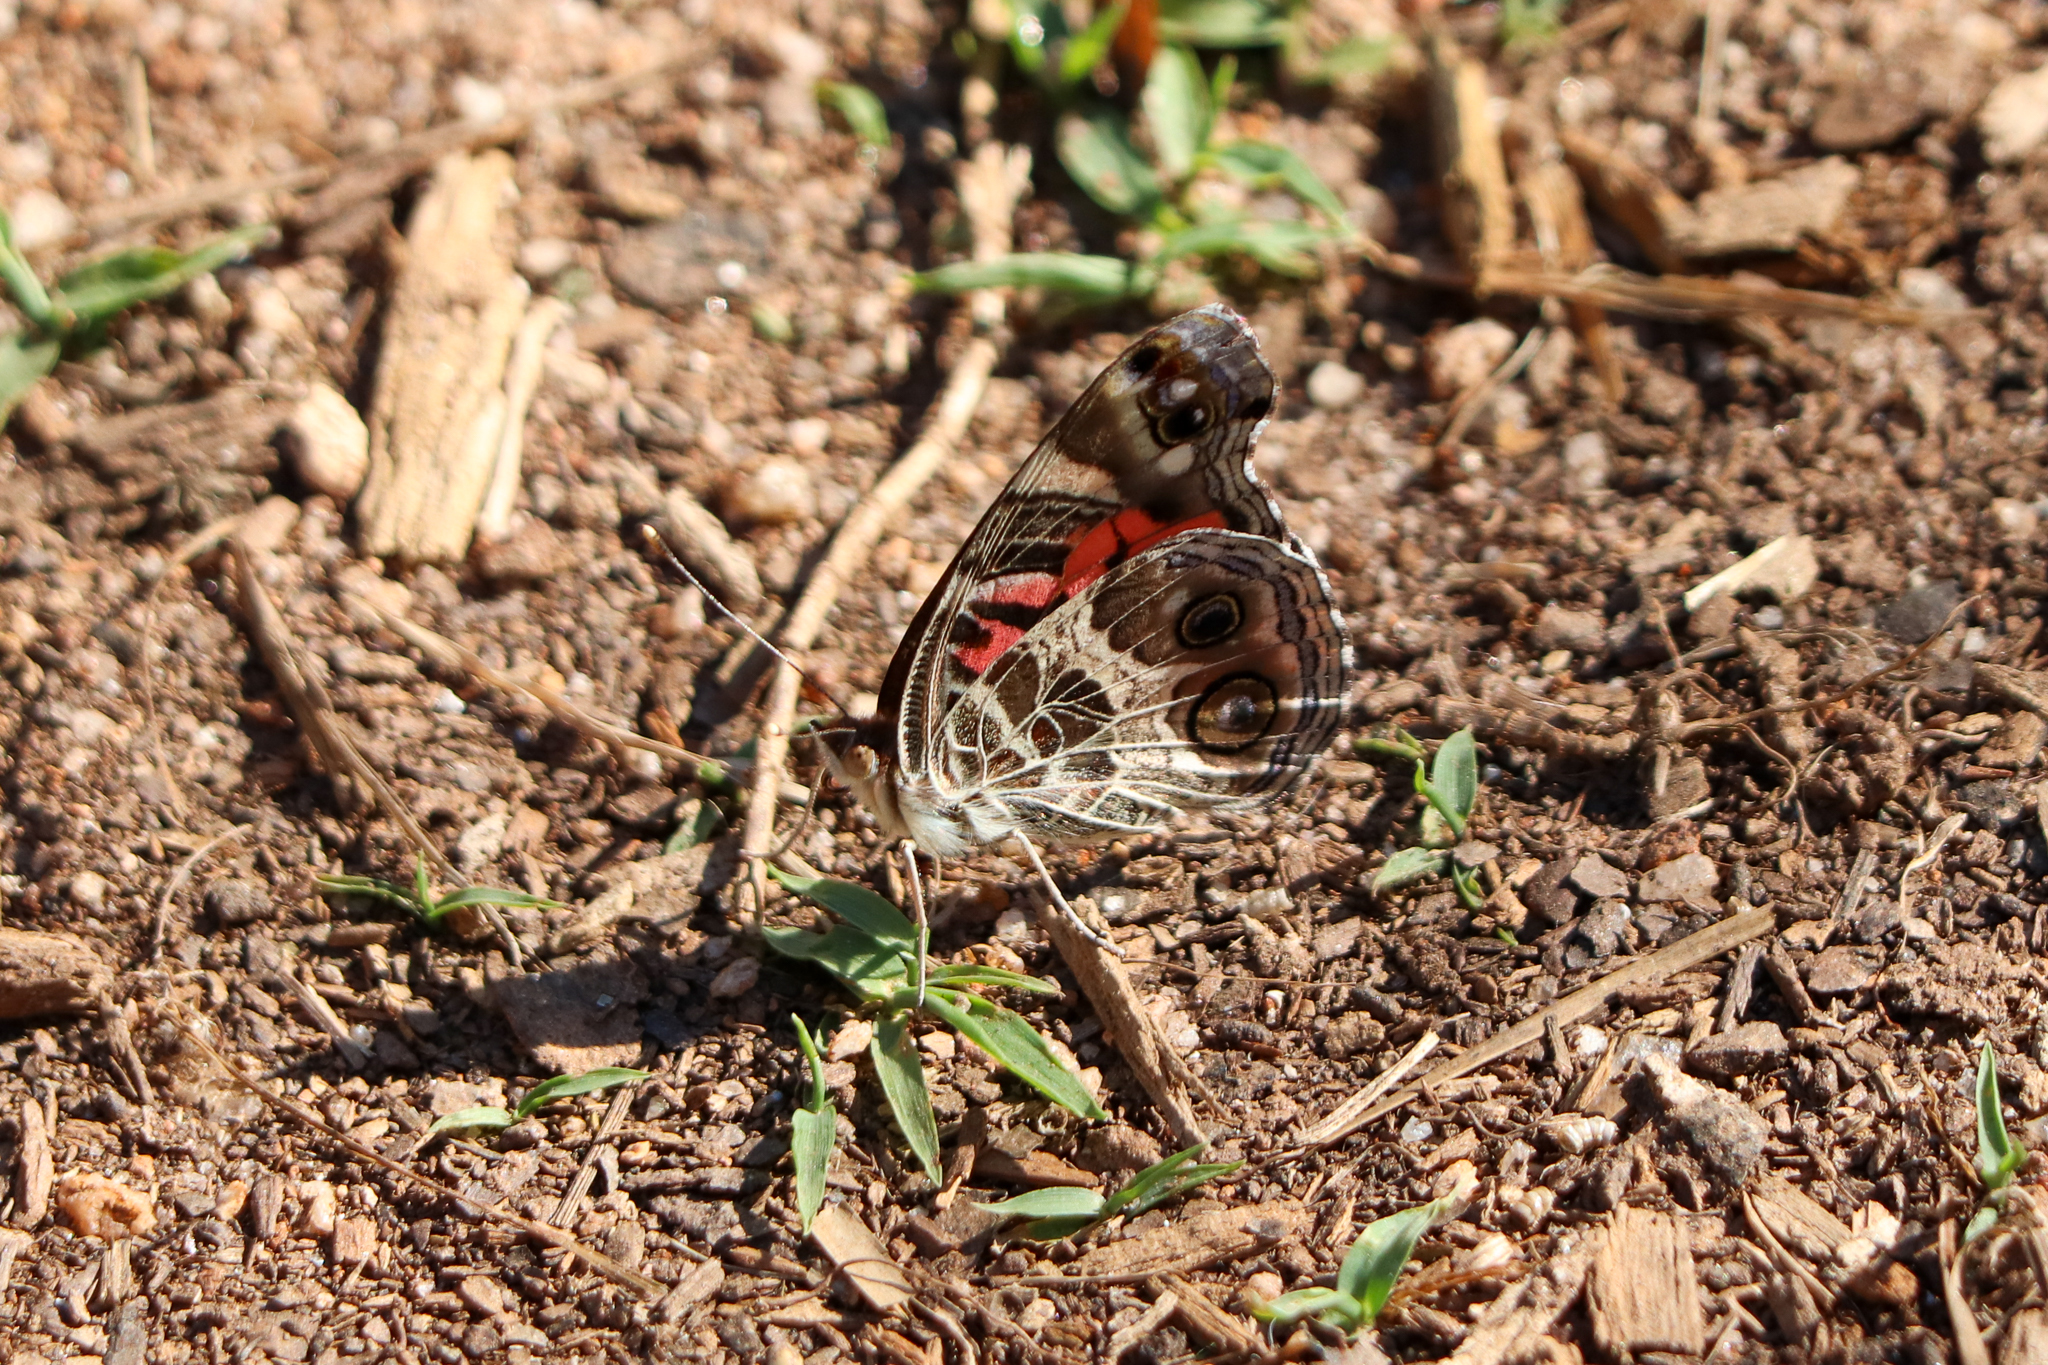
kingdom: Animalia
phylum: Arthropoda
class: Insecta
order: Lepidoptera
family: Nymphalidae
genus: Vanessa
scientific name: Vanessa virginiensis
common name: American lady
